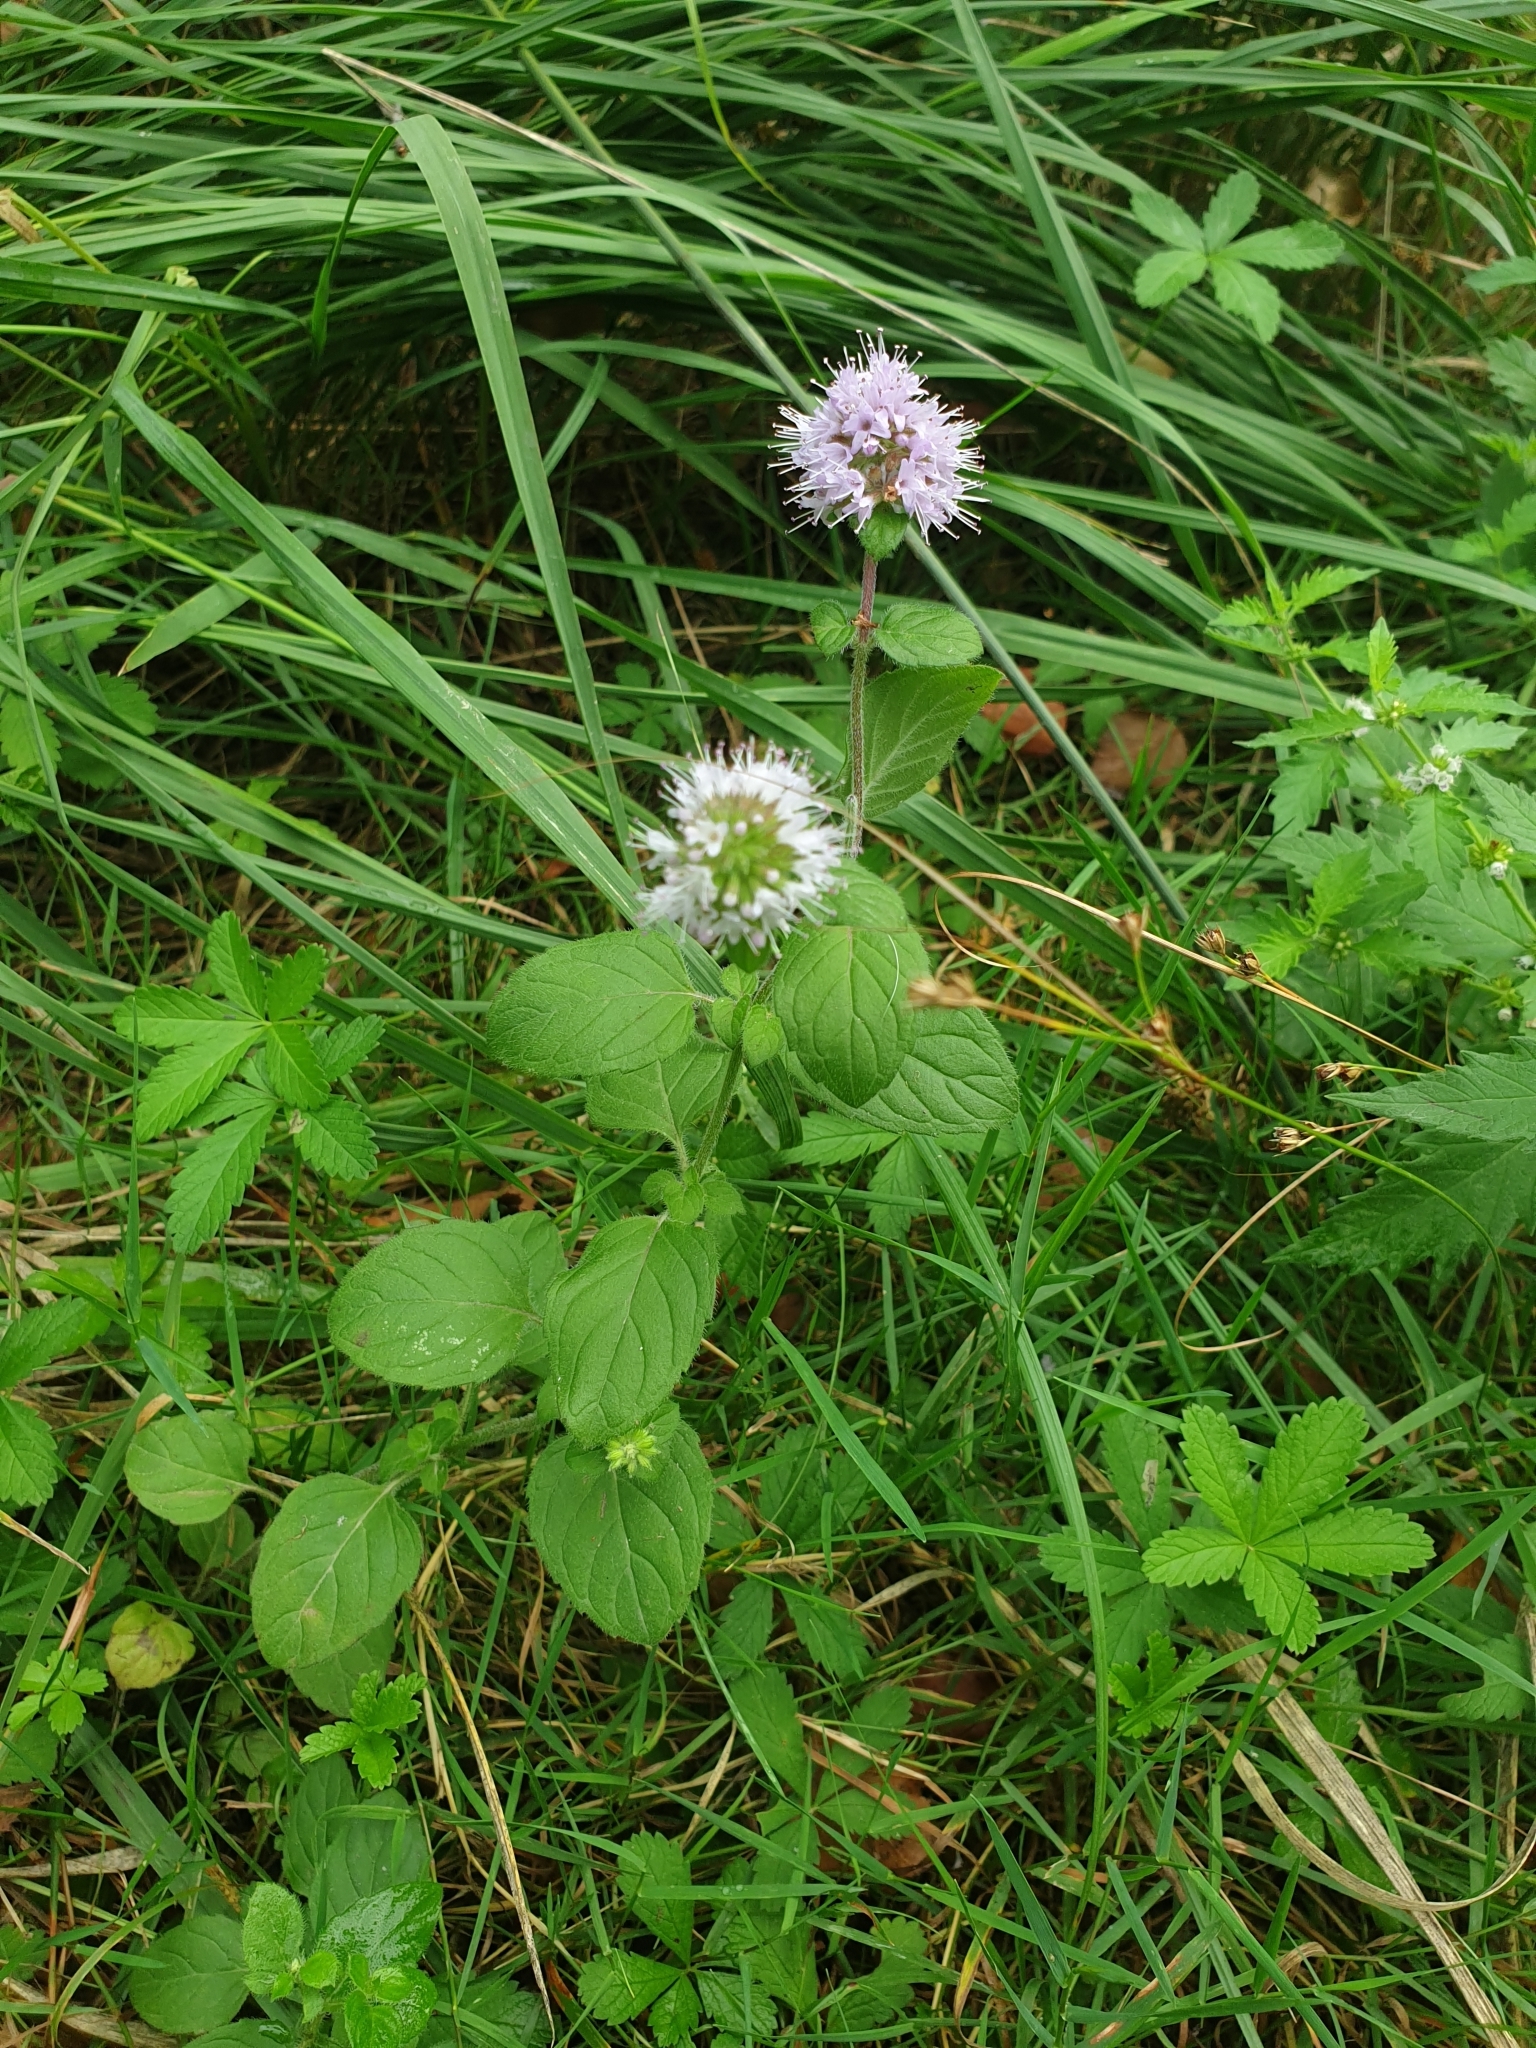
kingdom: Plantae
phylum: Tracheophyta
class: Magnoliopsida
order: Lamiales
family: Lamiaceae
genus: Mentha
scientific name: Mentha aquatica
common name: Water mint
